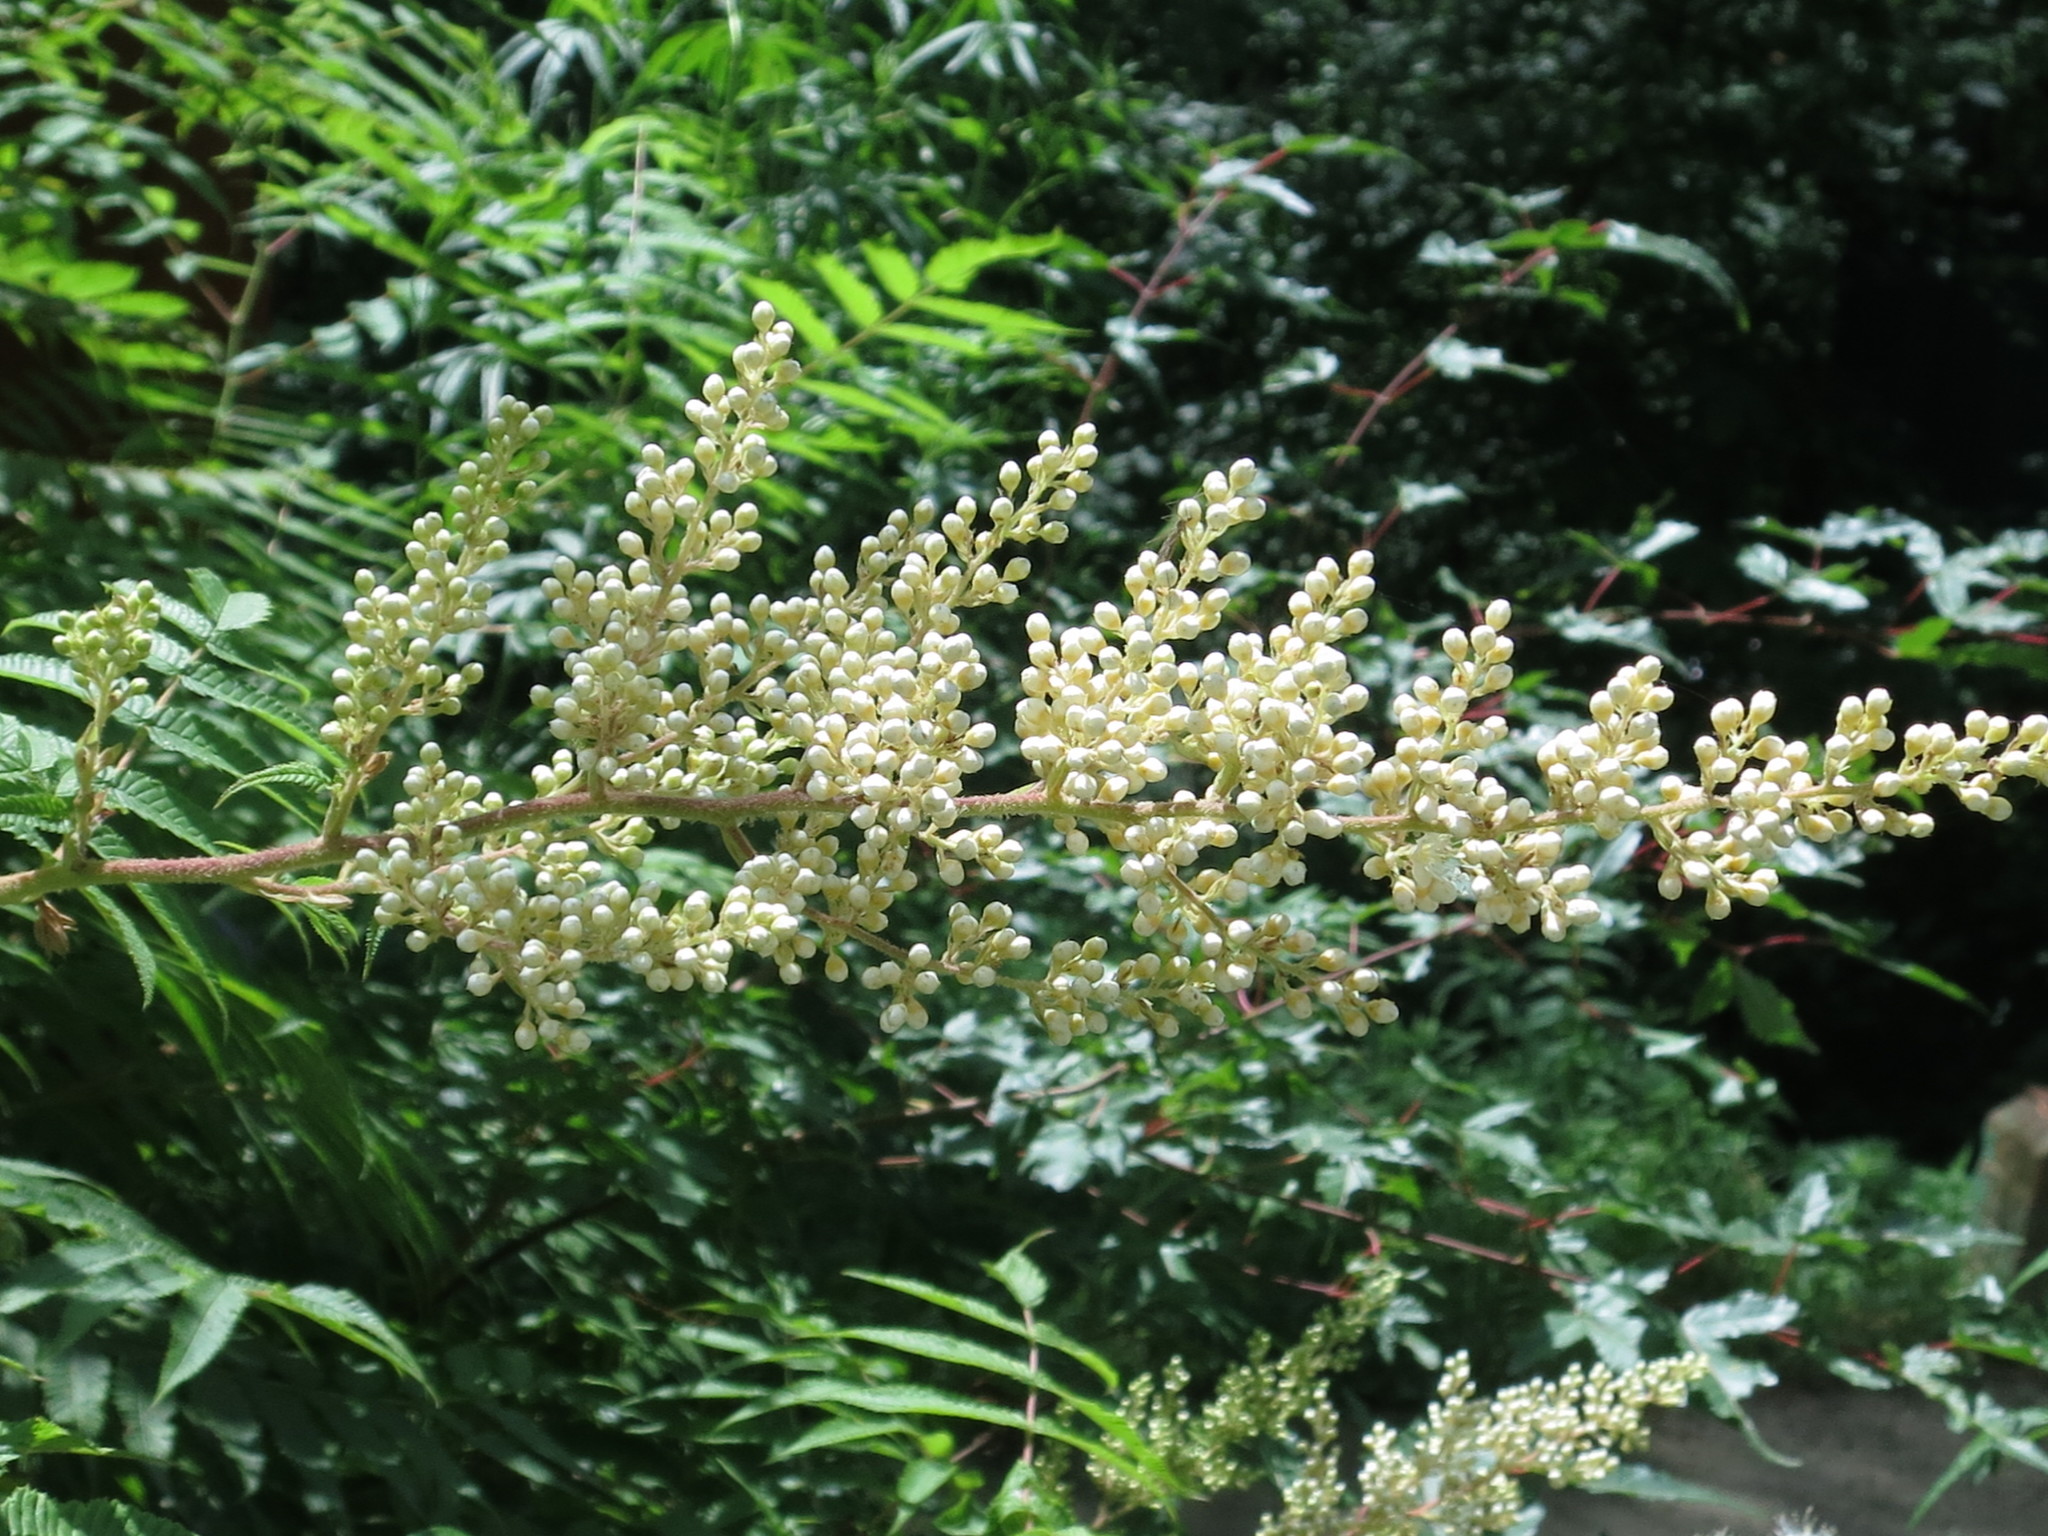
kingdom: Plantae
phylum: Tracheophyta
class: Magnoliopsida
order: Rosales
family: Rosaceae
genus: Sorbaria
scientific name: Sorbaria sorbifolia
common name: False spiraea
